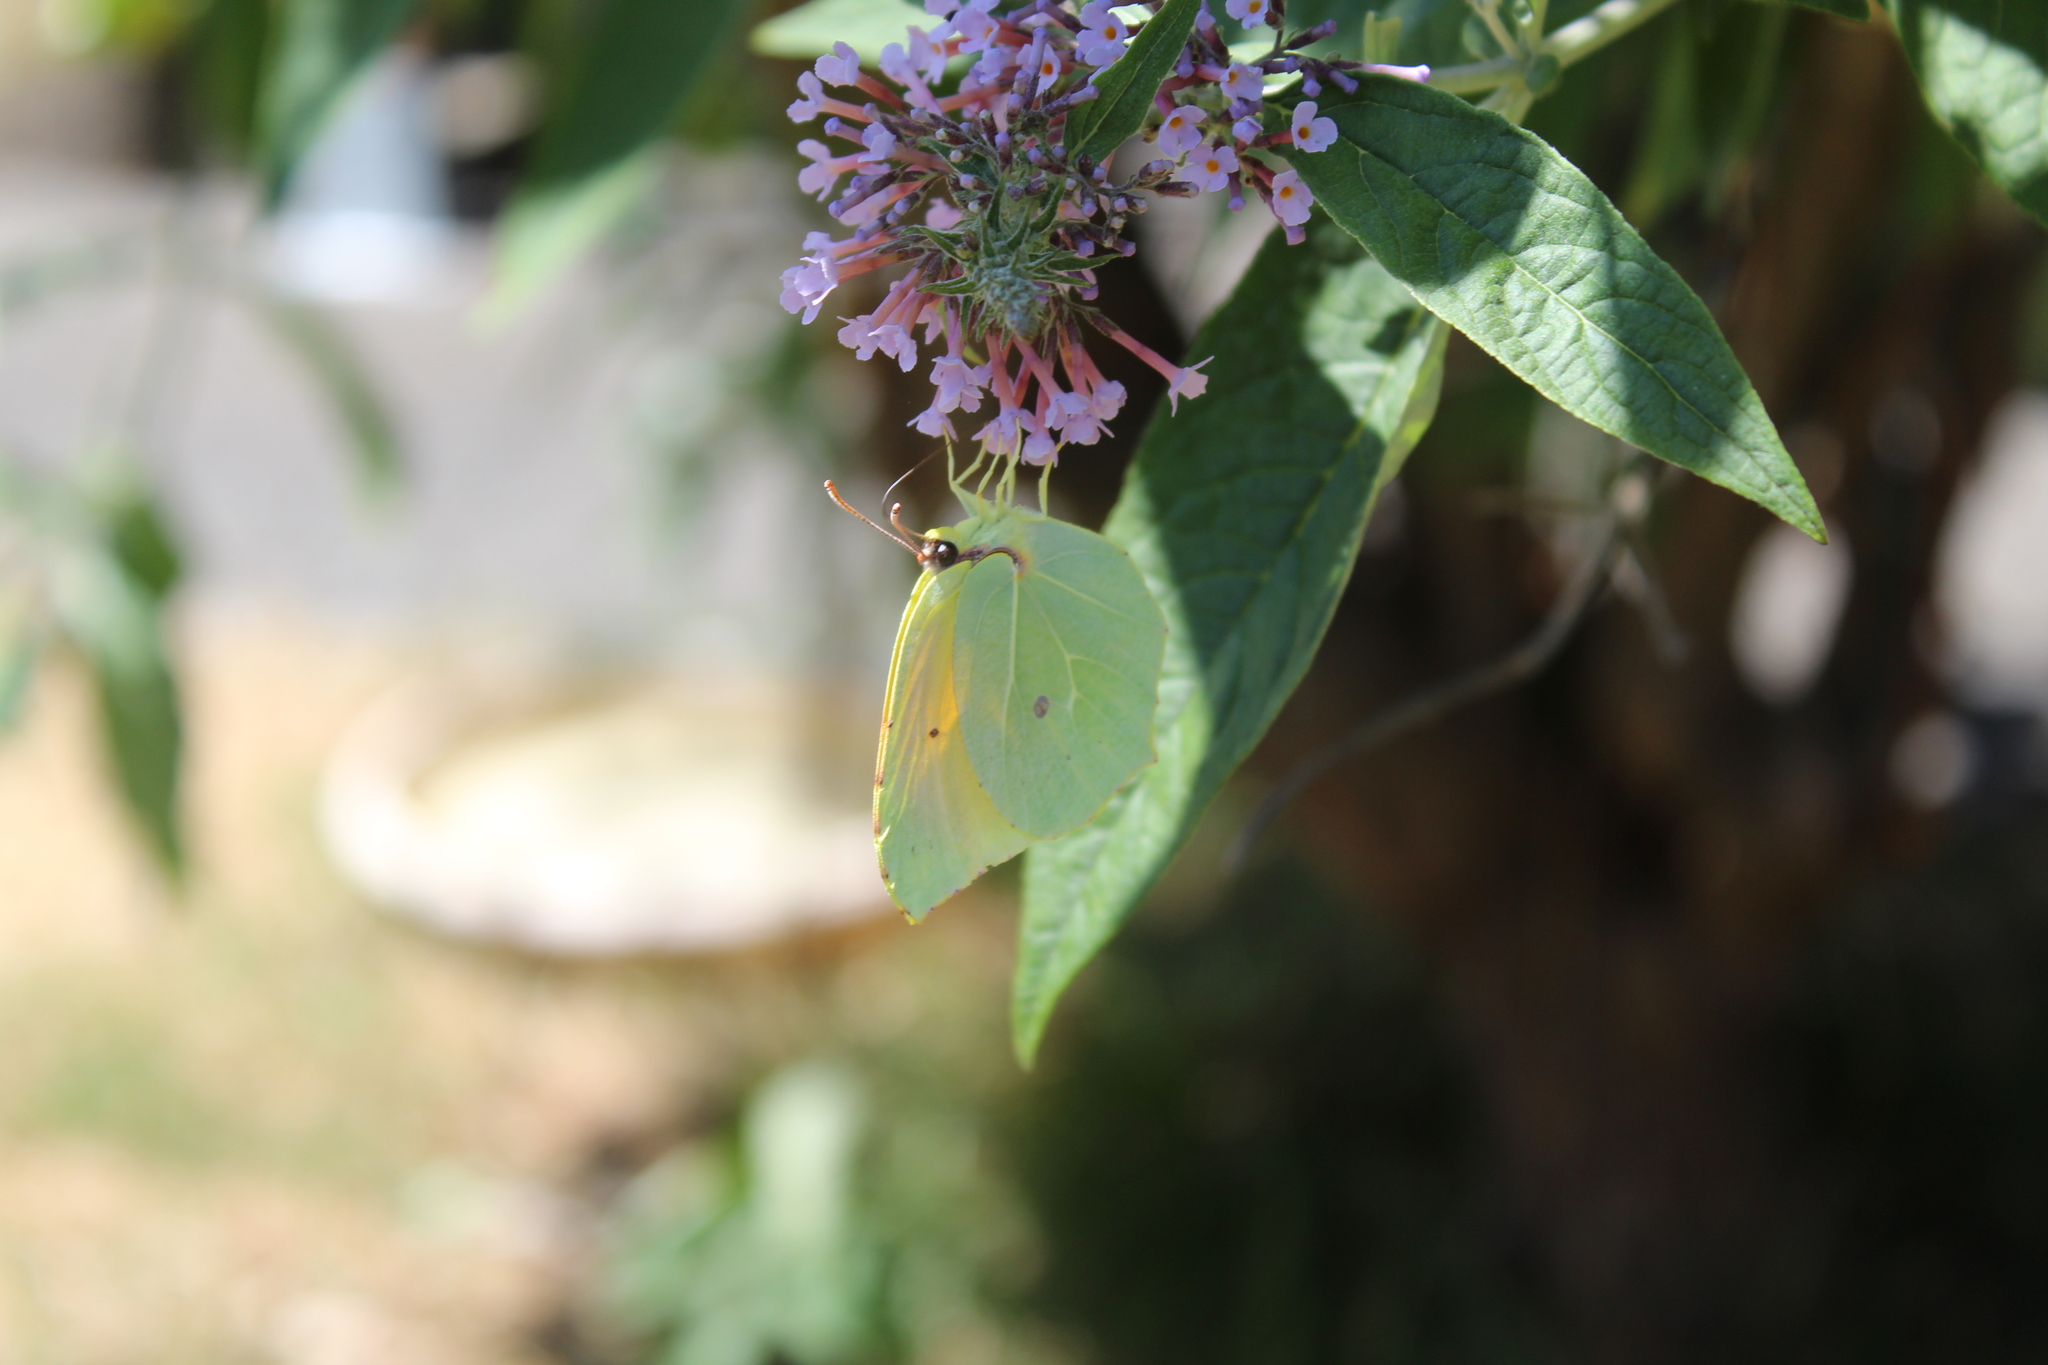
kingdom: Animalia
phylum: Arthropoda
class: Insecta
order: Lepidoptera
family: Pieridae
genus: Gonepteryx
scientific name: Gonepteryx cleopatra
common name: Cleopatra
